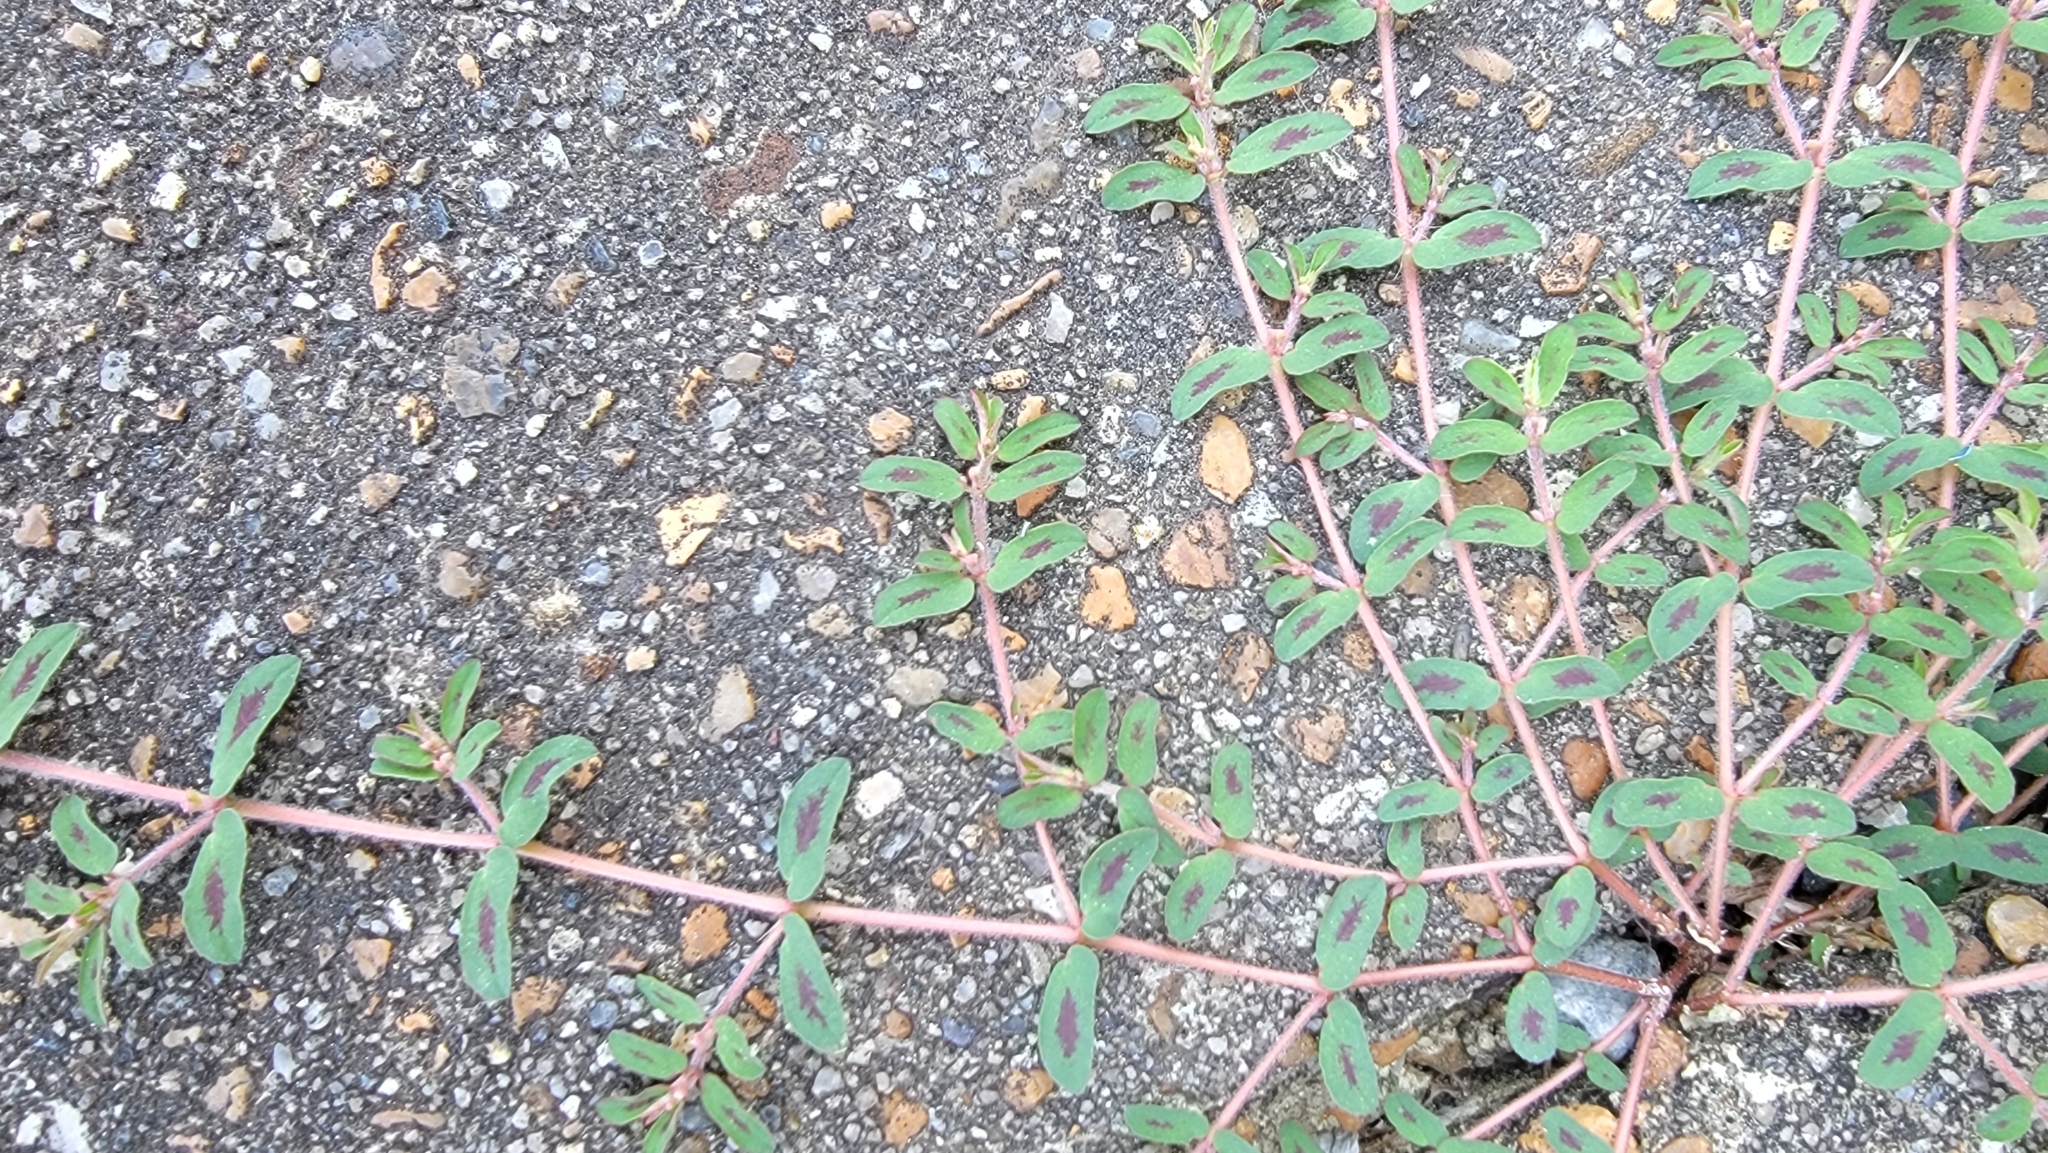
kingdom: Plantae
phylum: Tracheophyta
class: Magnoliopsida
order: Malpighiales
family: Euphorbiaceae
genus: Euphorbia
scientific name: Euphorbia maculata
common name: Spotted spurge
